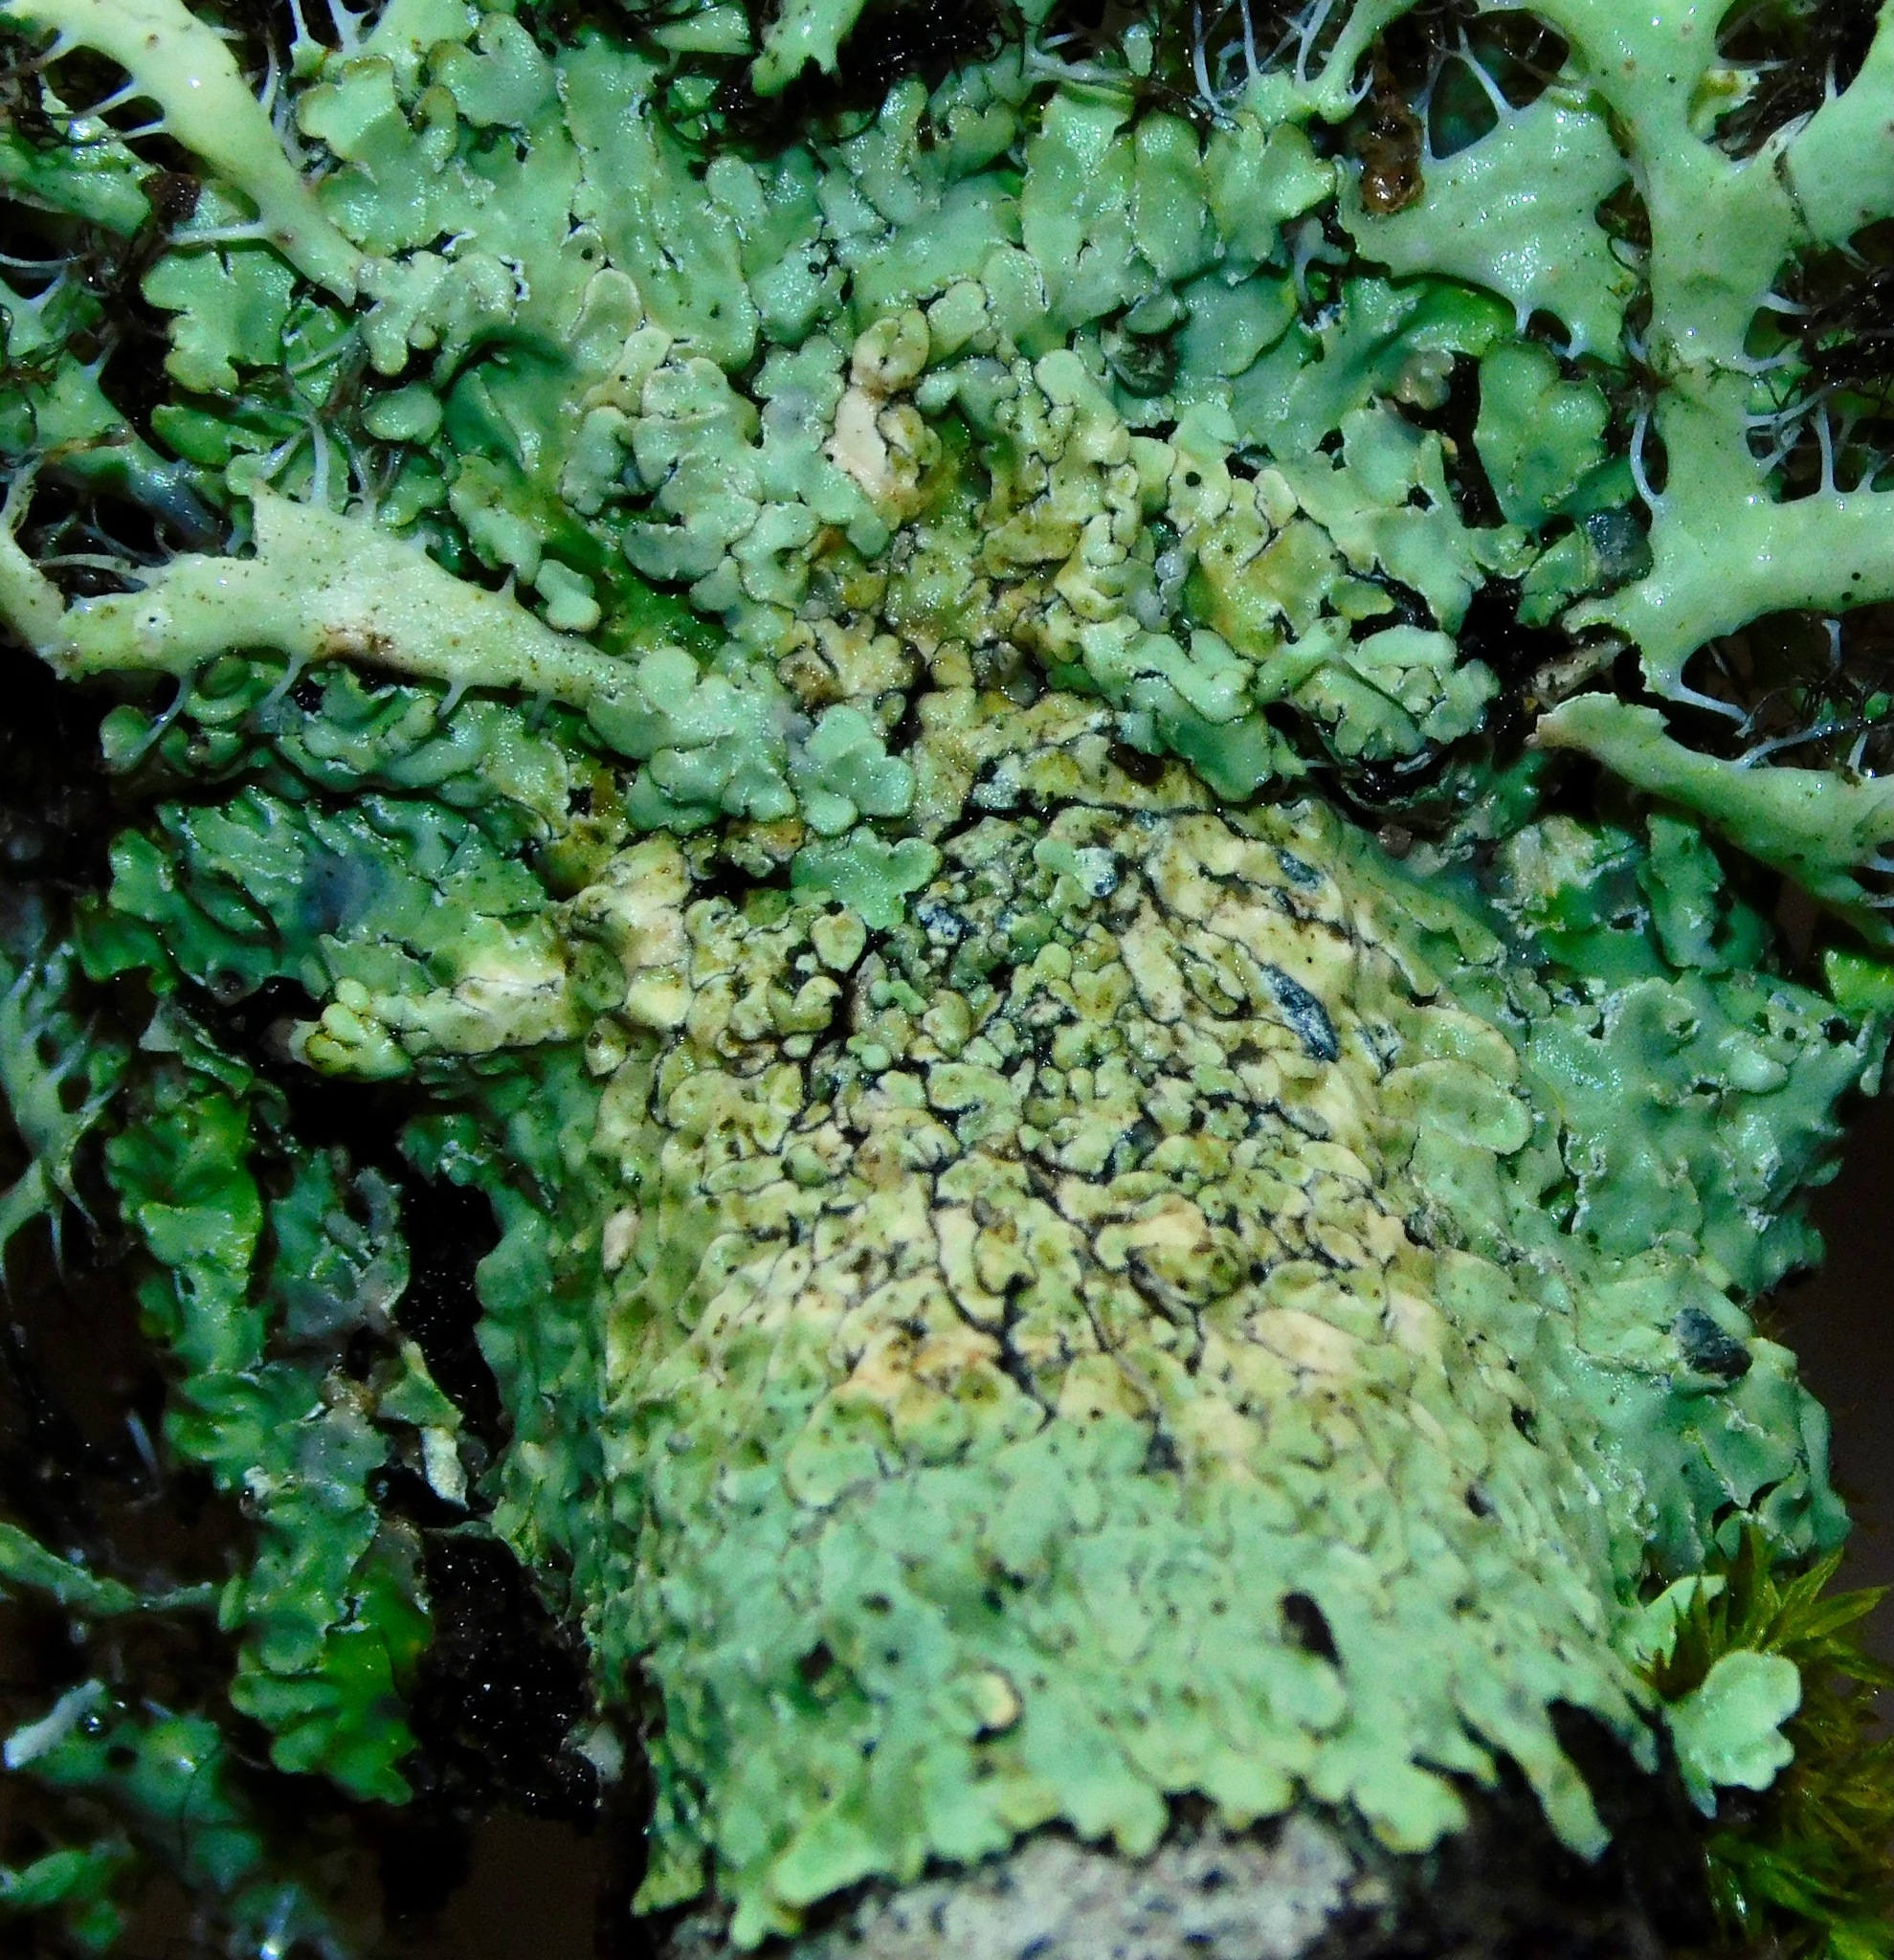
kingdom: Fungi
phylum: Ascomycota
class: Lecanoromycetes
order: Caliciales
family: Caliciaceae
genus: Pyxine
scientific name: Pyxine sorediata
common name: Mustard lichen
